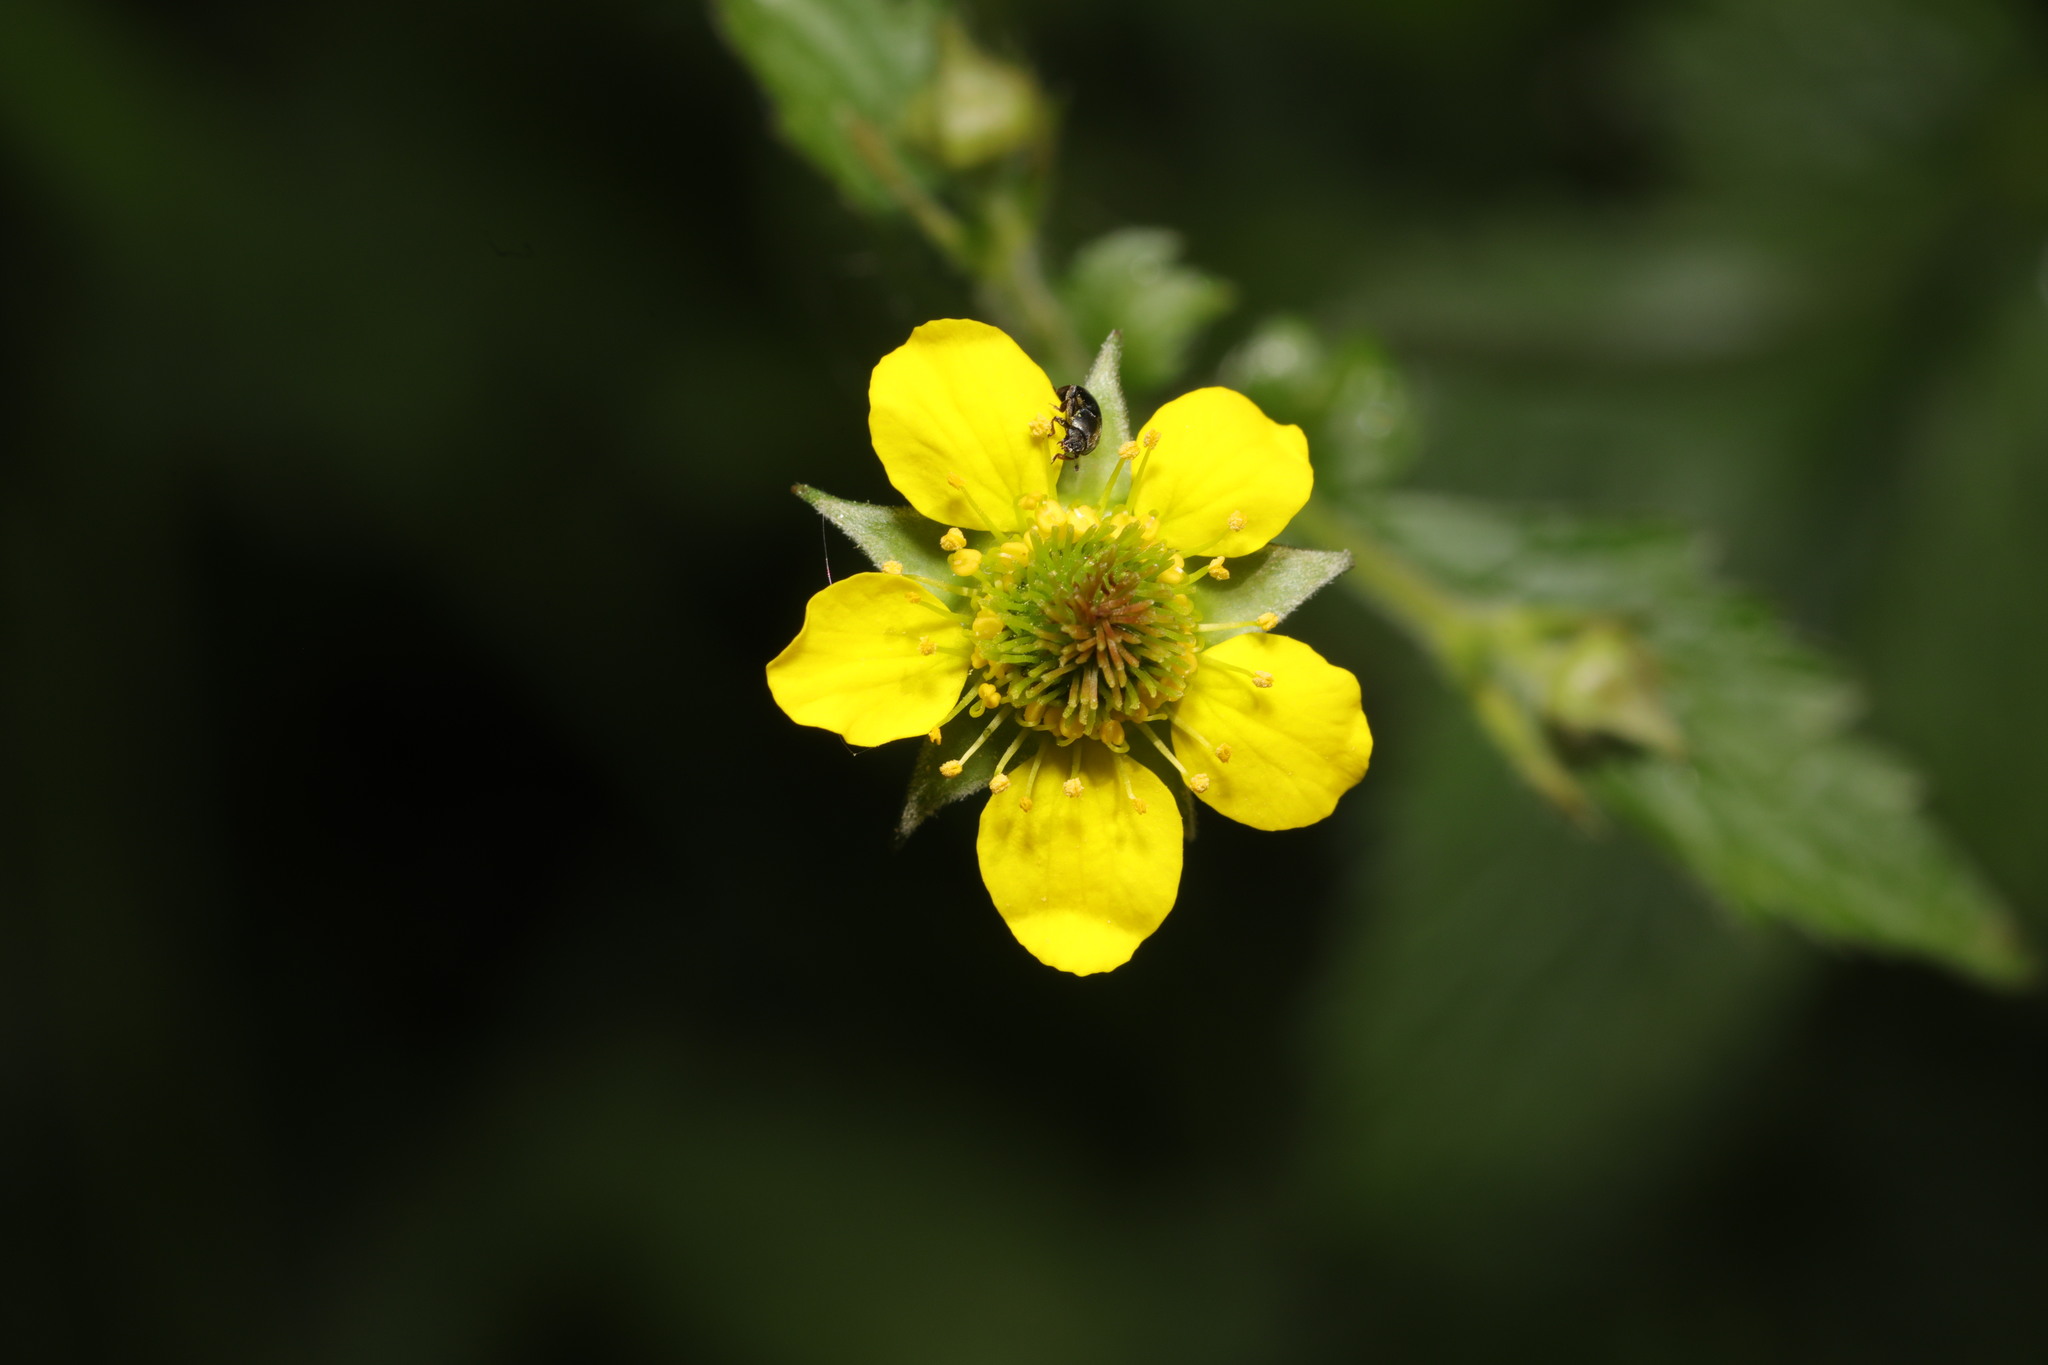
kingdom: Plantae
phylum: Tracheophyta
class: Magnoliopsida
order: Rosales
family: Rosaceae
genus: Geum
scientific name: Geum urbanum
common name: Wood avens
